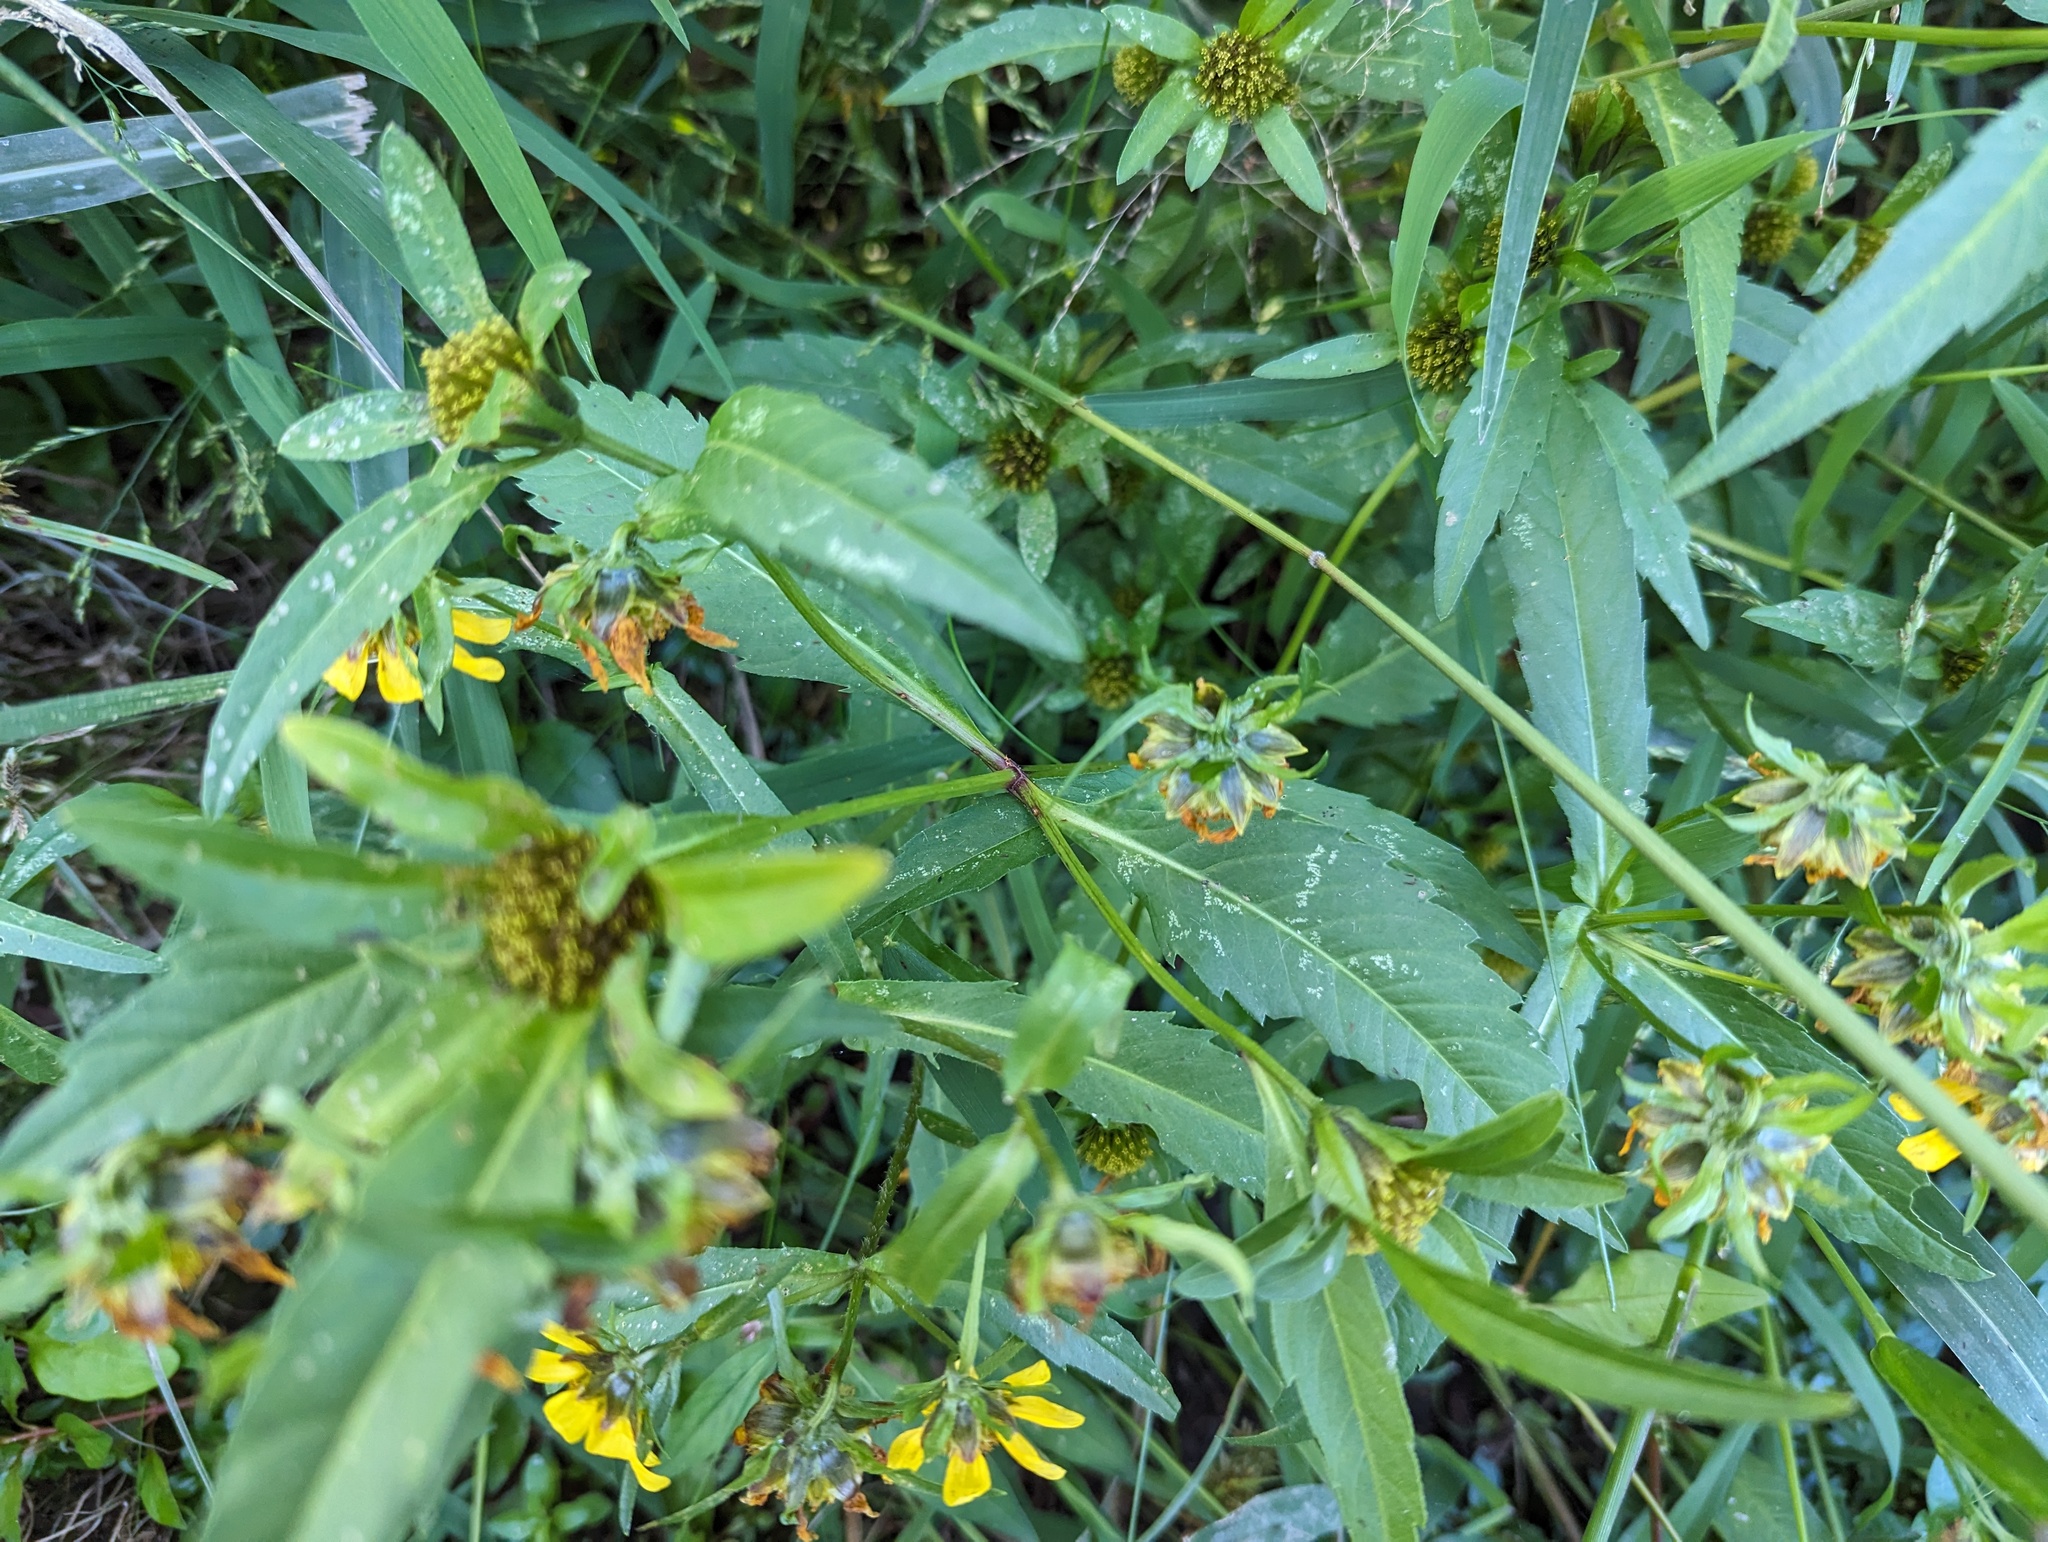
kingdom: Plantae
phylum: Tracheophyta
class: Magnoliopsida
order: Asterales
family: Asteraceae
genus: Bidens
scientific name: Bidens tripartita
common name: Trifid bur-marigold
